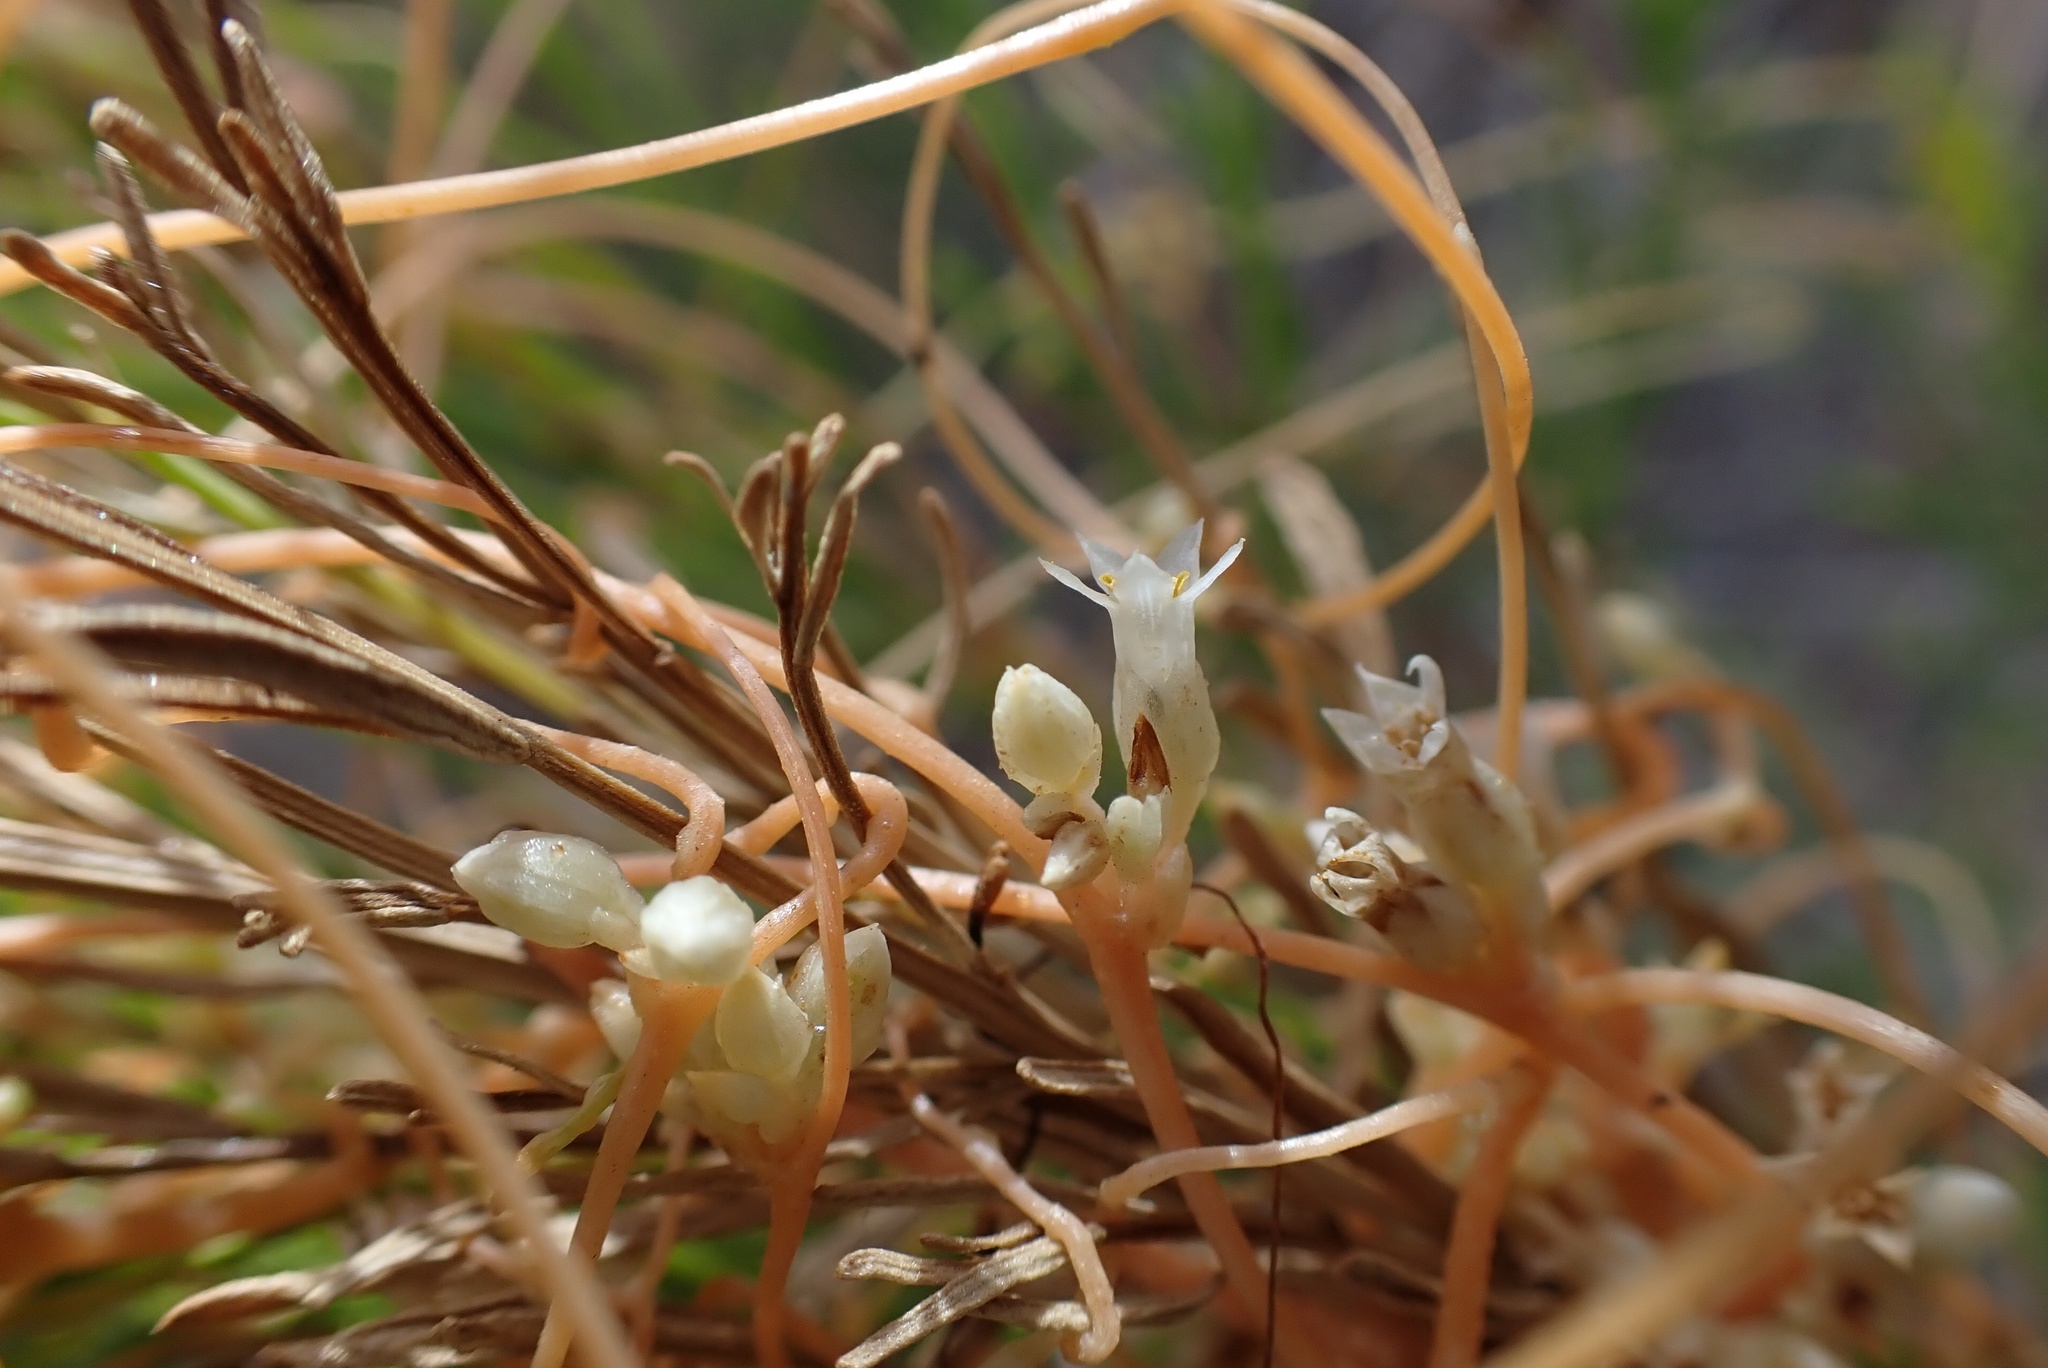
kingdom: Plantae
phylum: Tracheophyta
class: Magnoliopsida
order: Solanales
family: Convolvulaceae
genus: Cuscuta
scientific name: Cuscuta subinclusa
